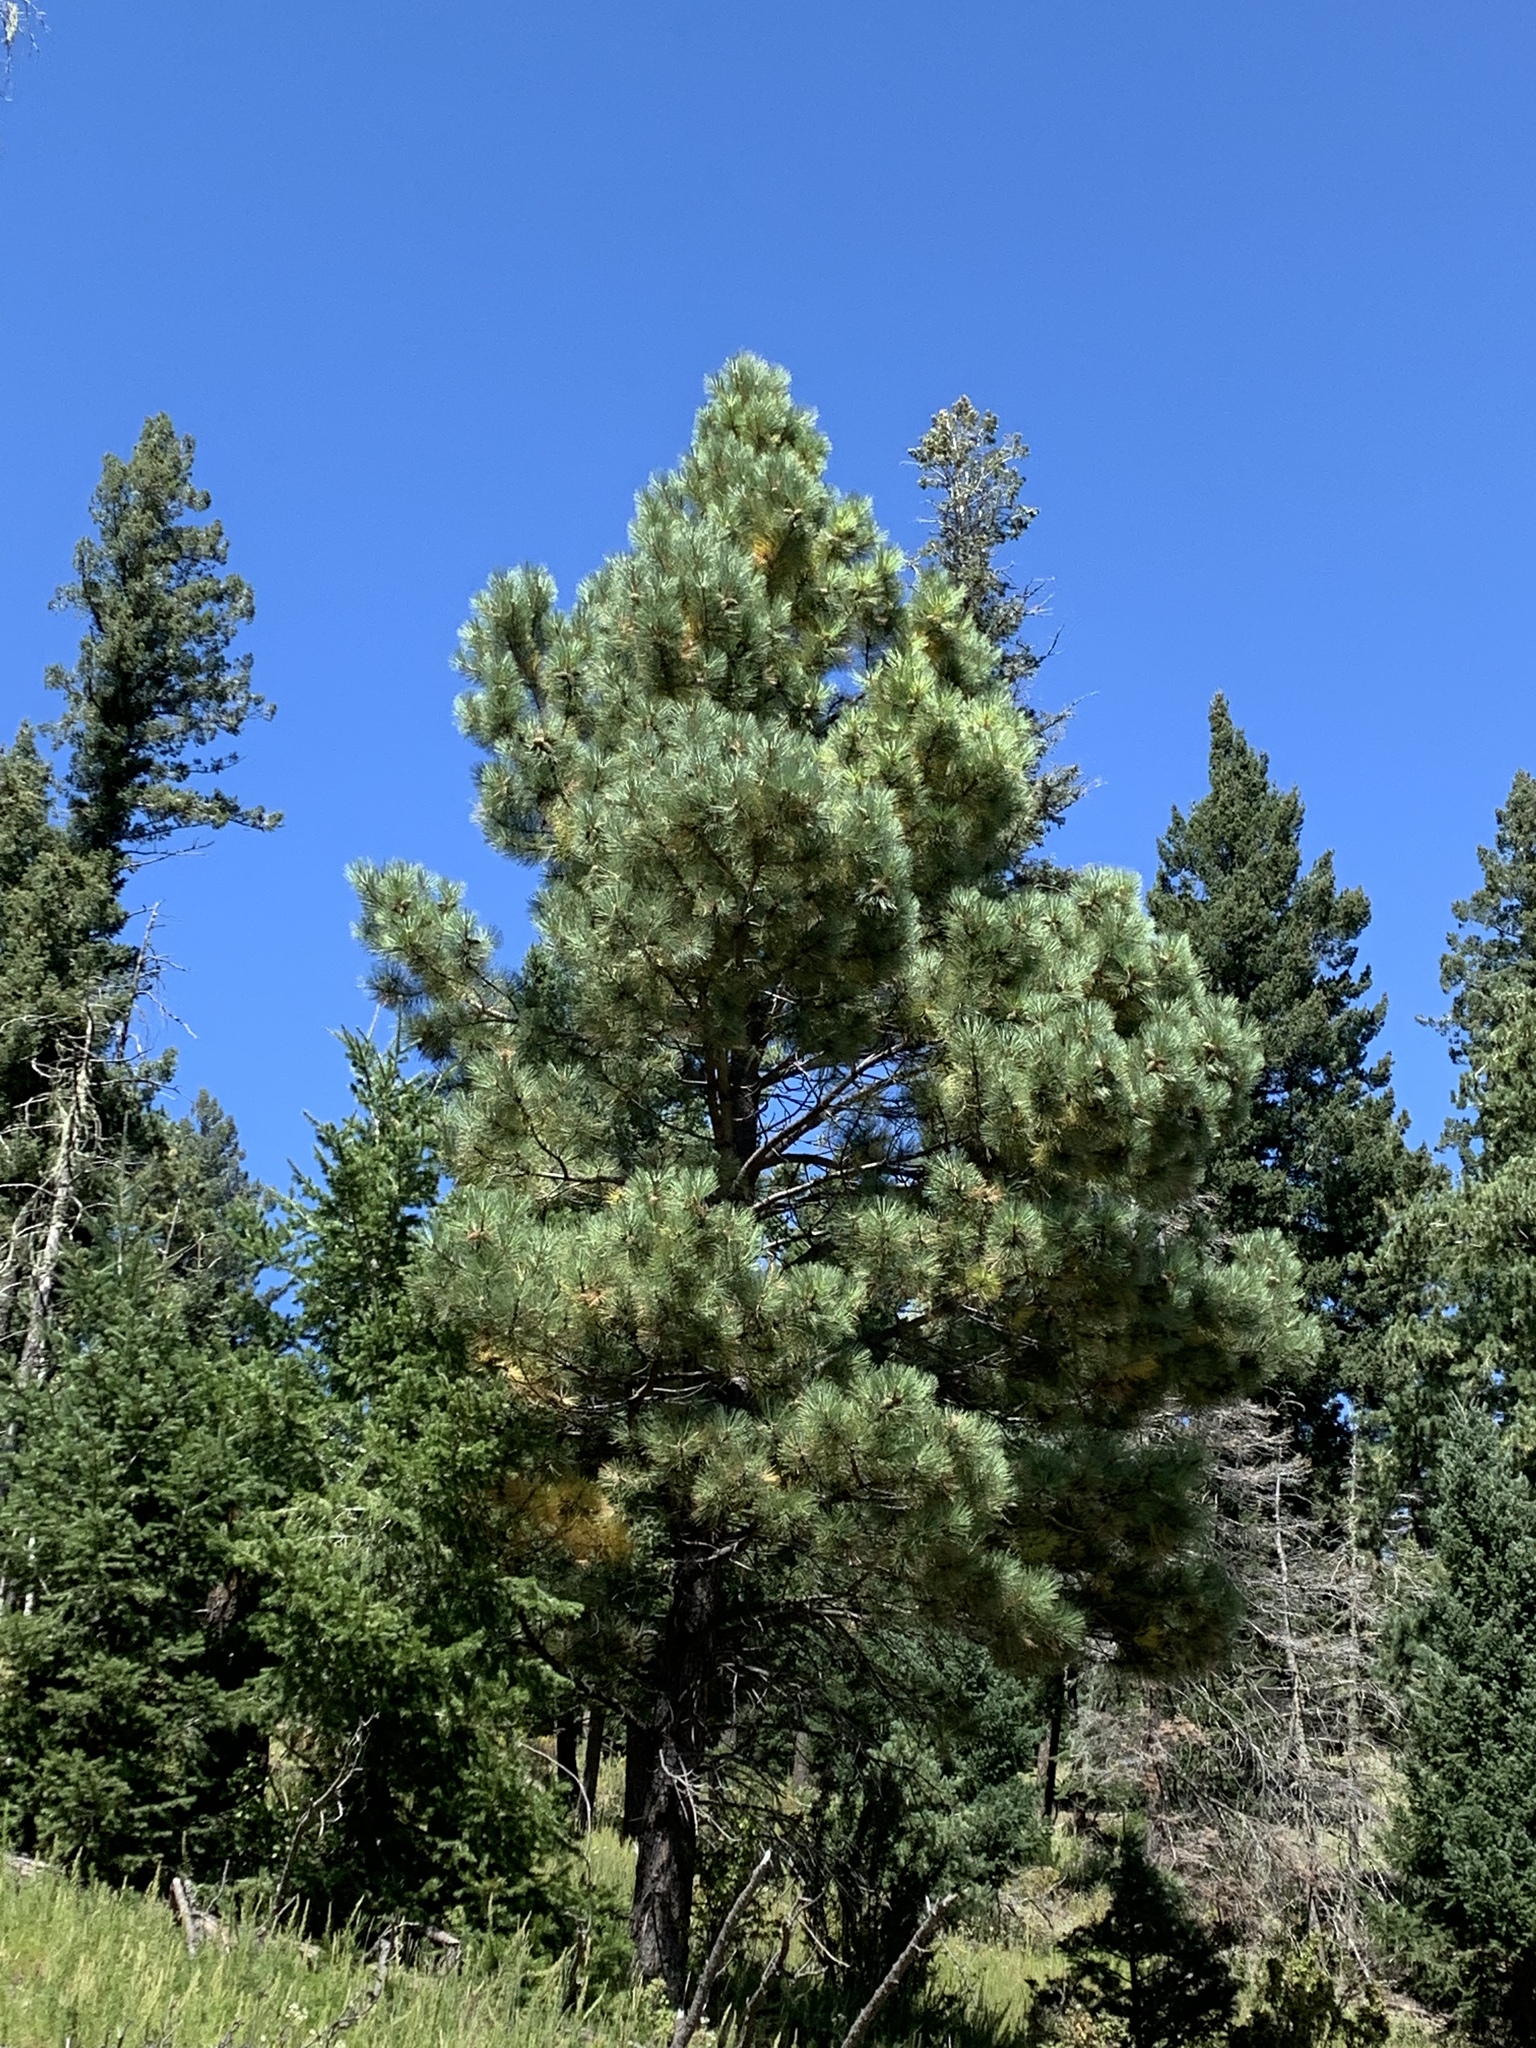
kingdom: Plantae
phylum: Tracheophyta
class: Pinopsida
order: Pinales
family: Pinaceae
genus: Pinus
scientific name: Pinus ponderosa
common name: Western yellow-pine
